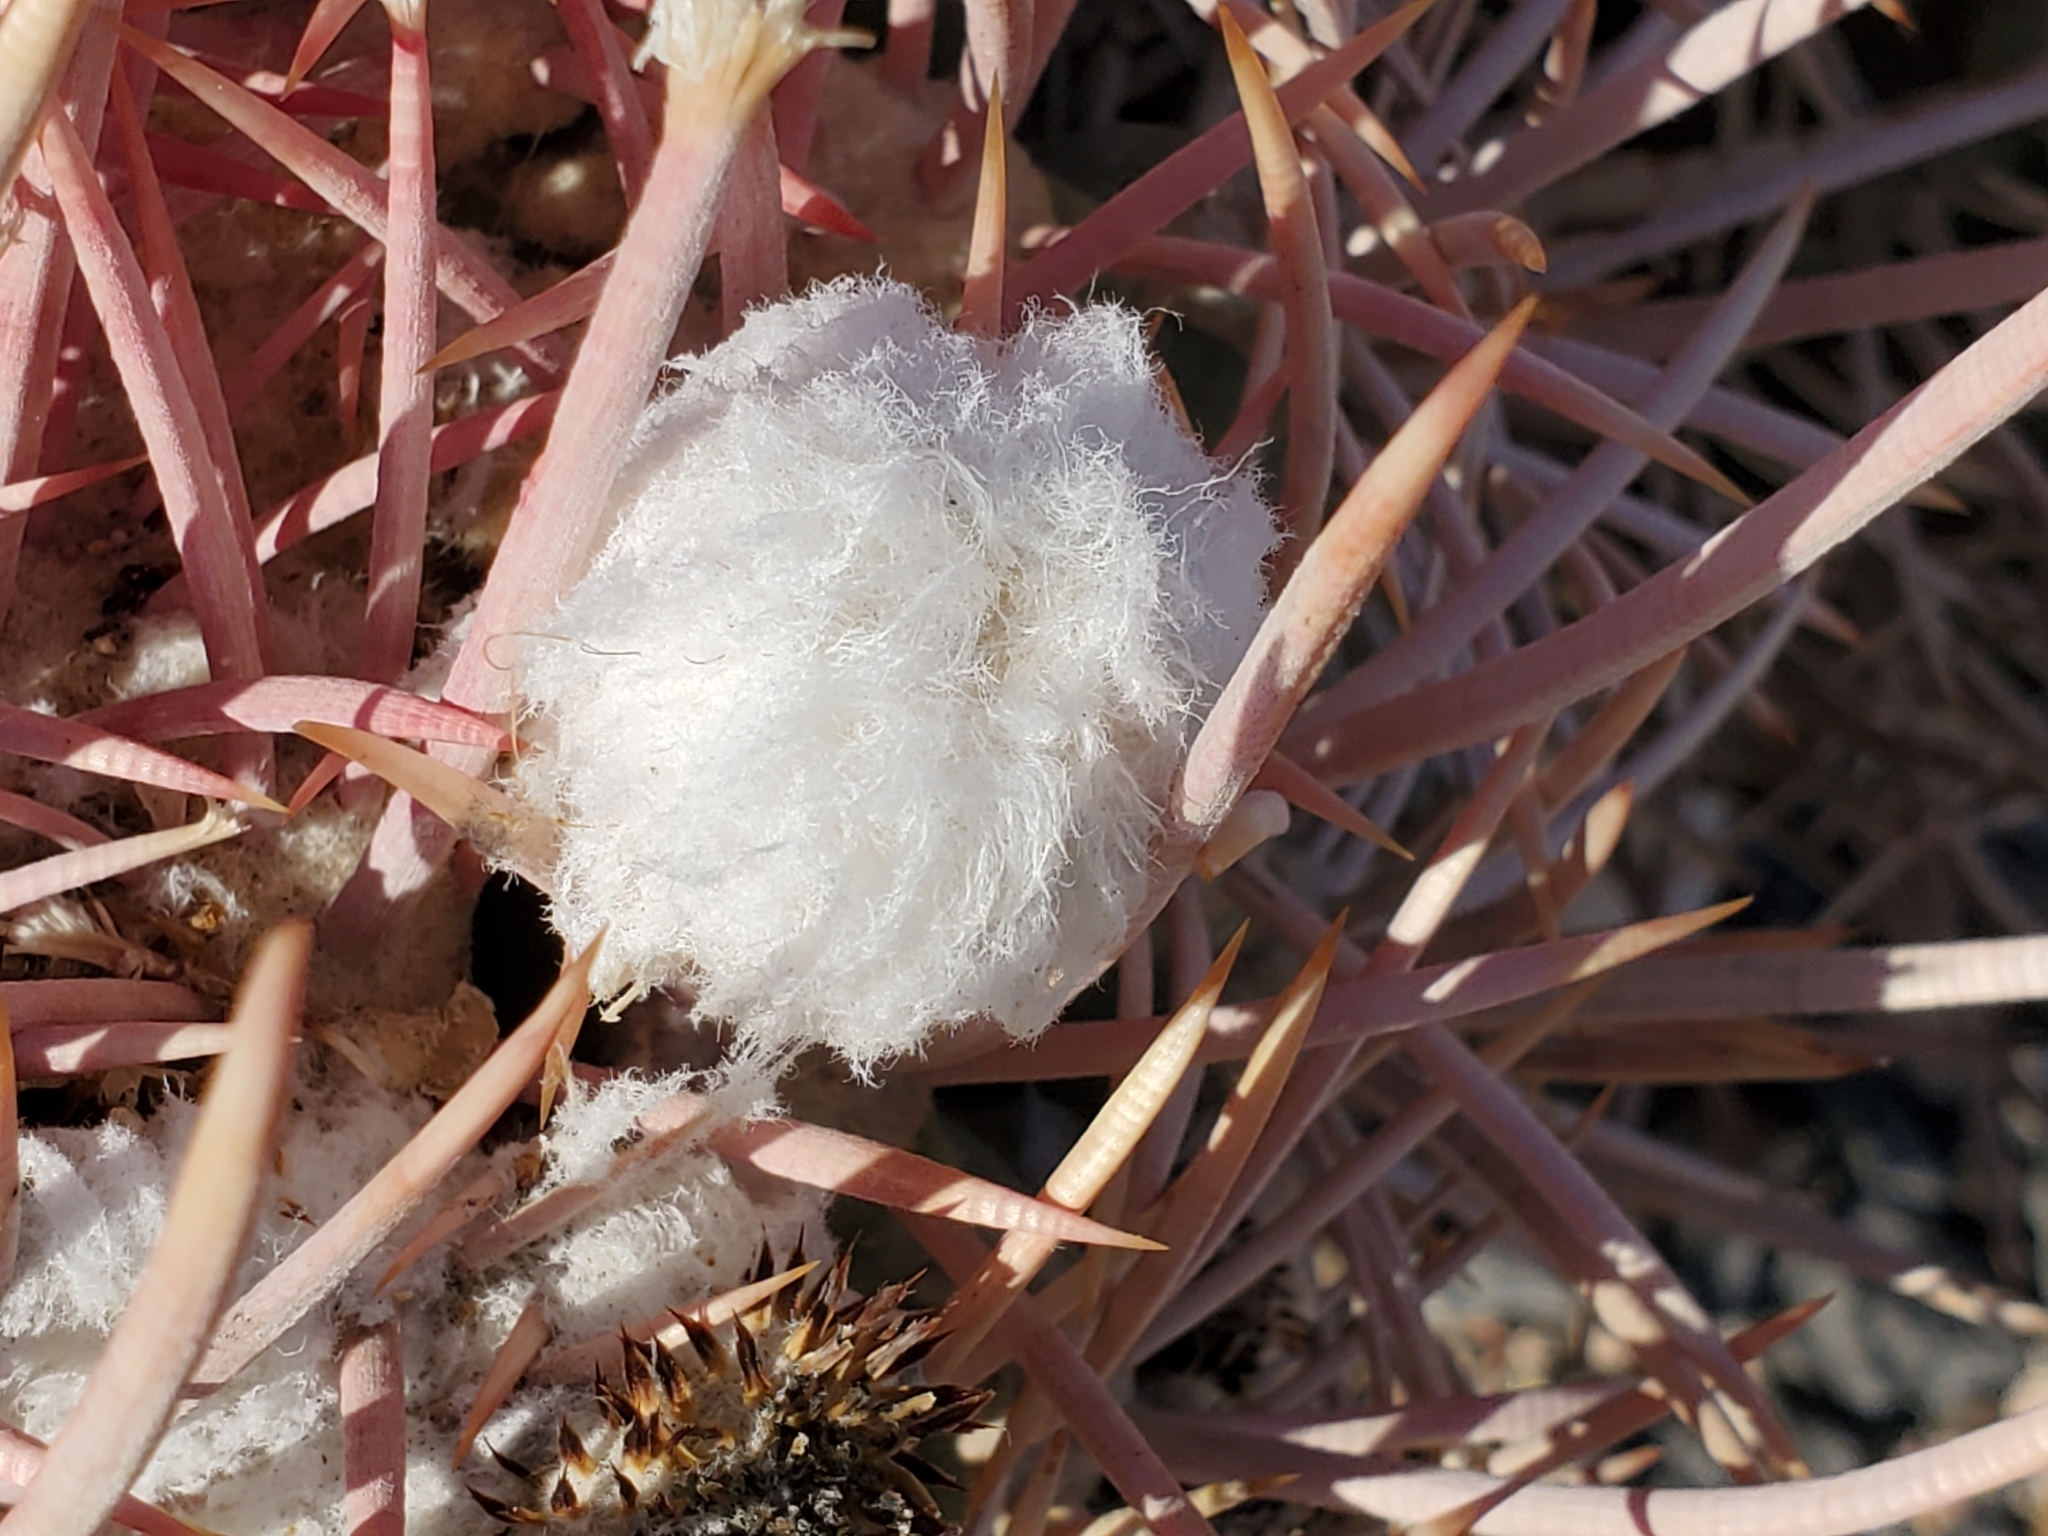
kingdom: Plantae
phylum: Tracheophyta
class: Magnoliopsida
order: Caryophyllales
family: Cactaceae
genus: Echinocactus
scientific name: Echinocactus polycephalus
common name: Cottontop cactus
